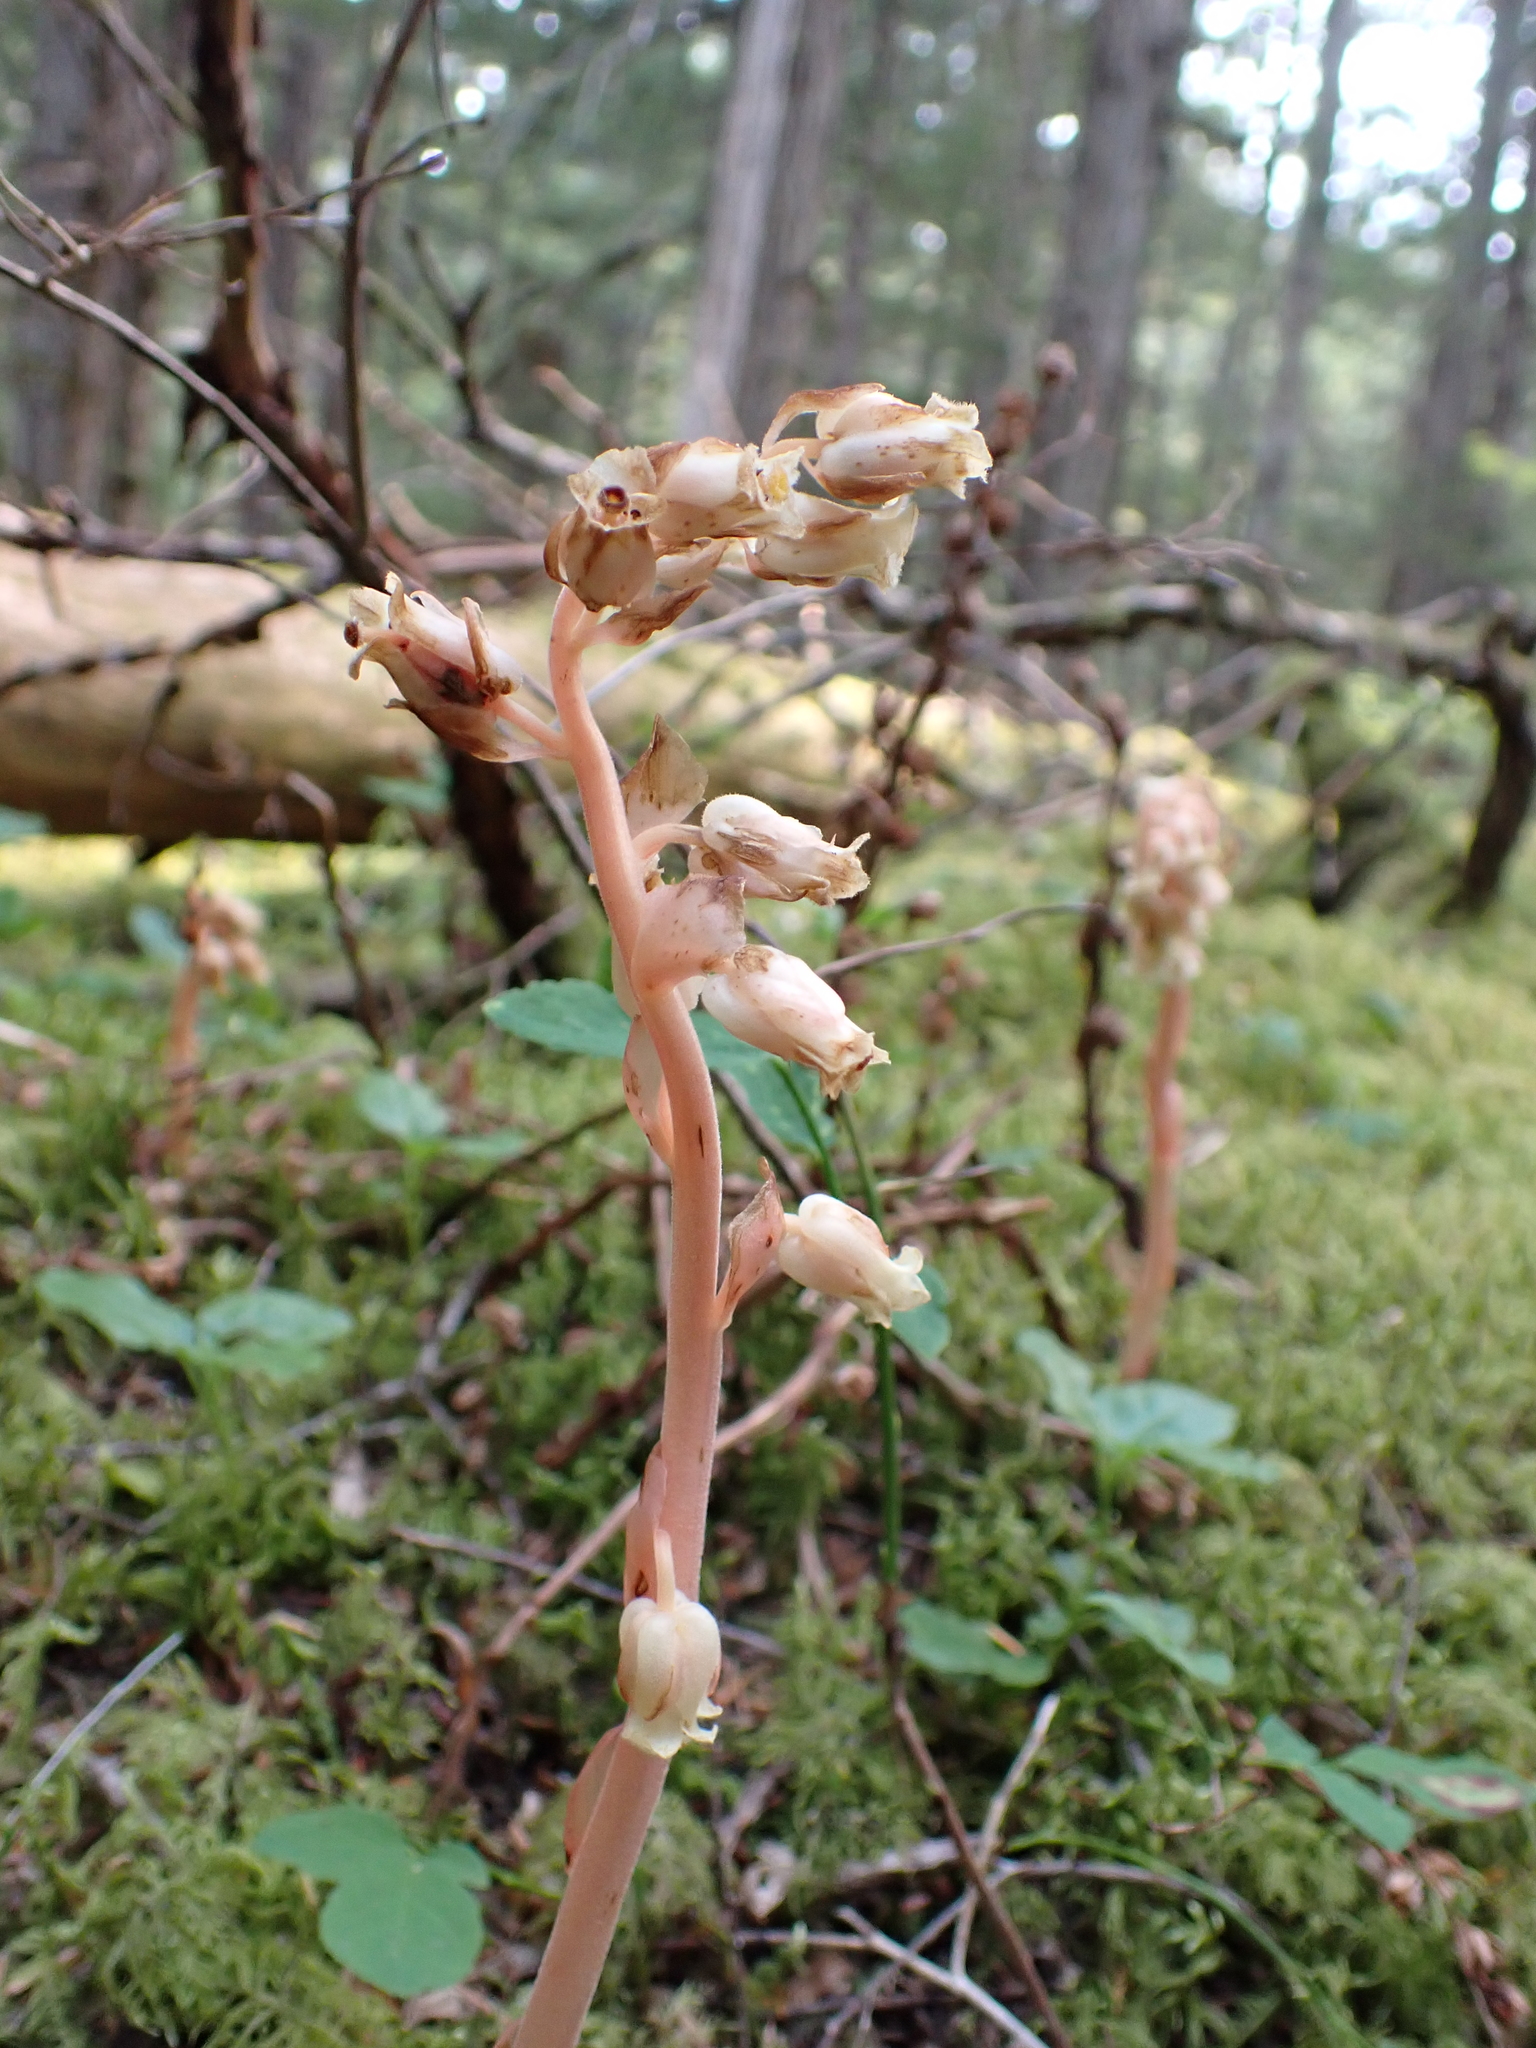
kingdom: Plantae
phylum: Tracheophyta
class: Magnoliopsida
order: Ericales
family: Ericaceae
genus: Hypopitys
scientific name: Hypopitys monotropa
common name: Yellow bird's-nest
